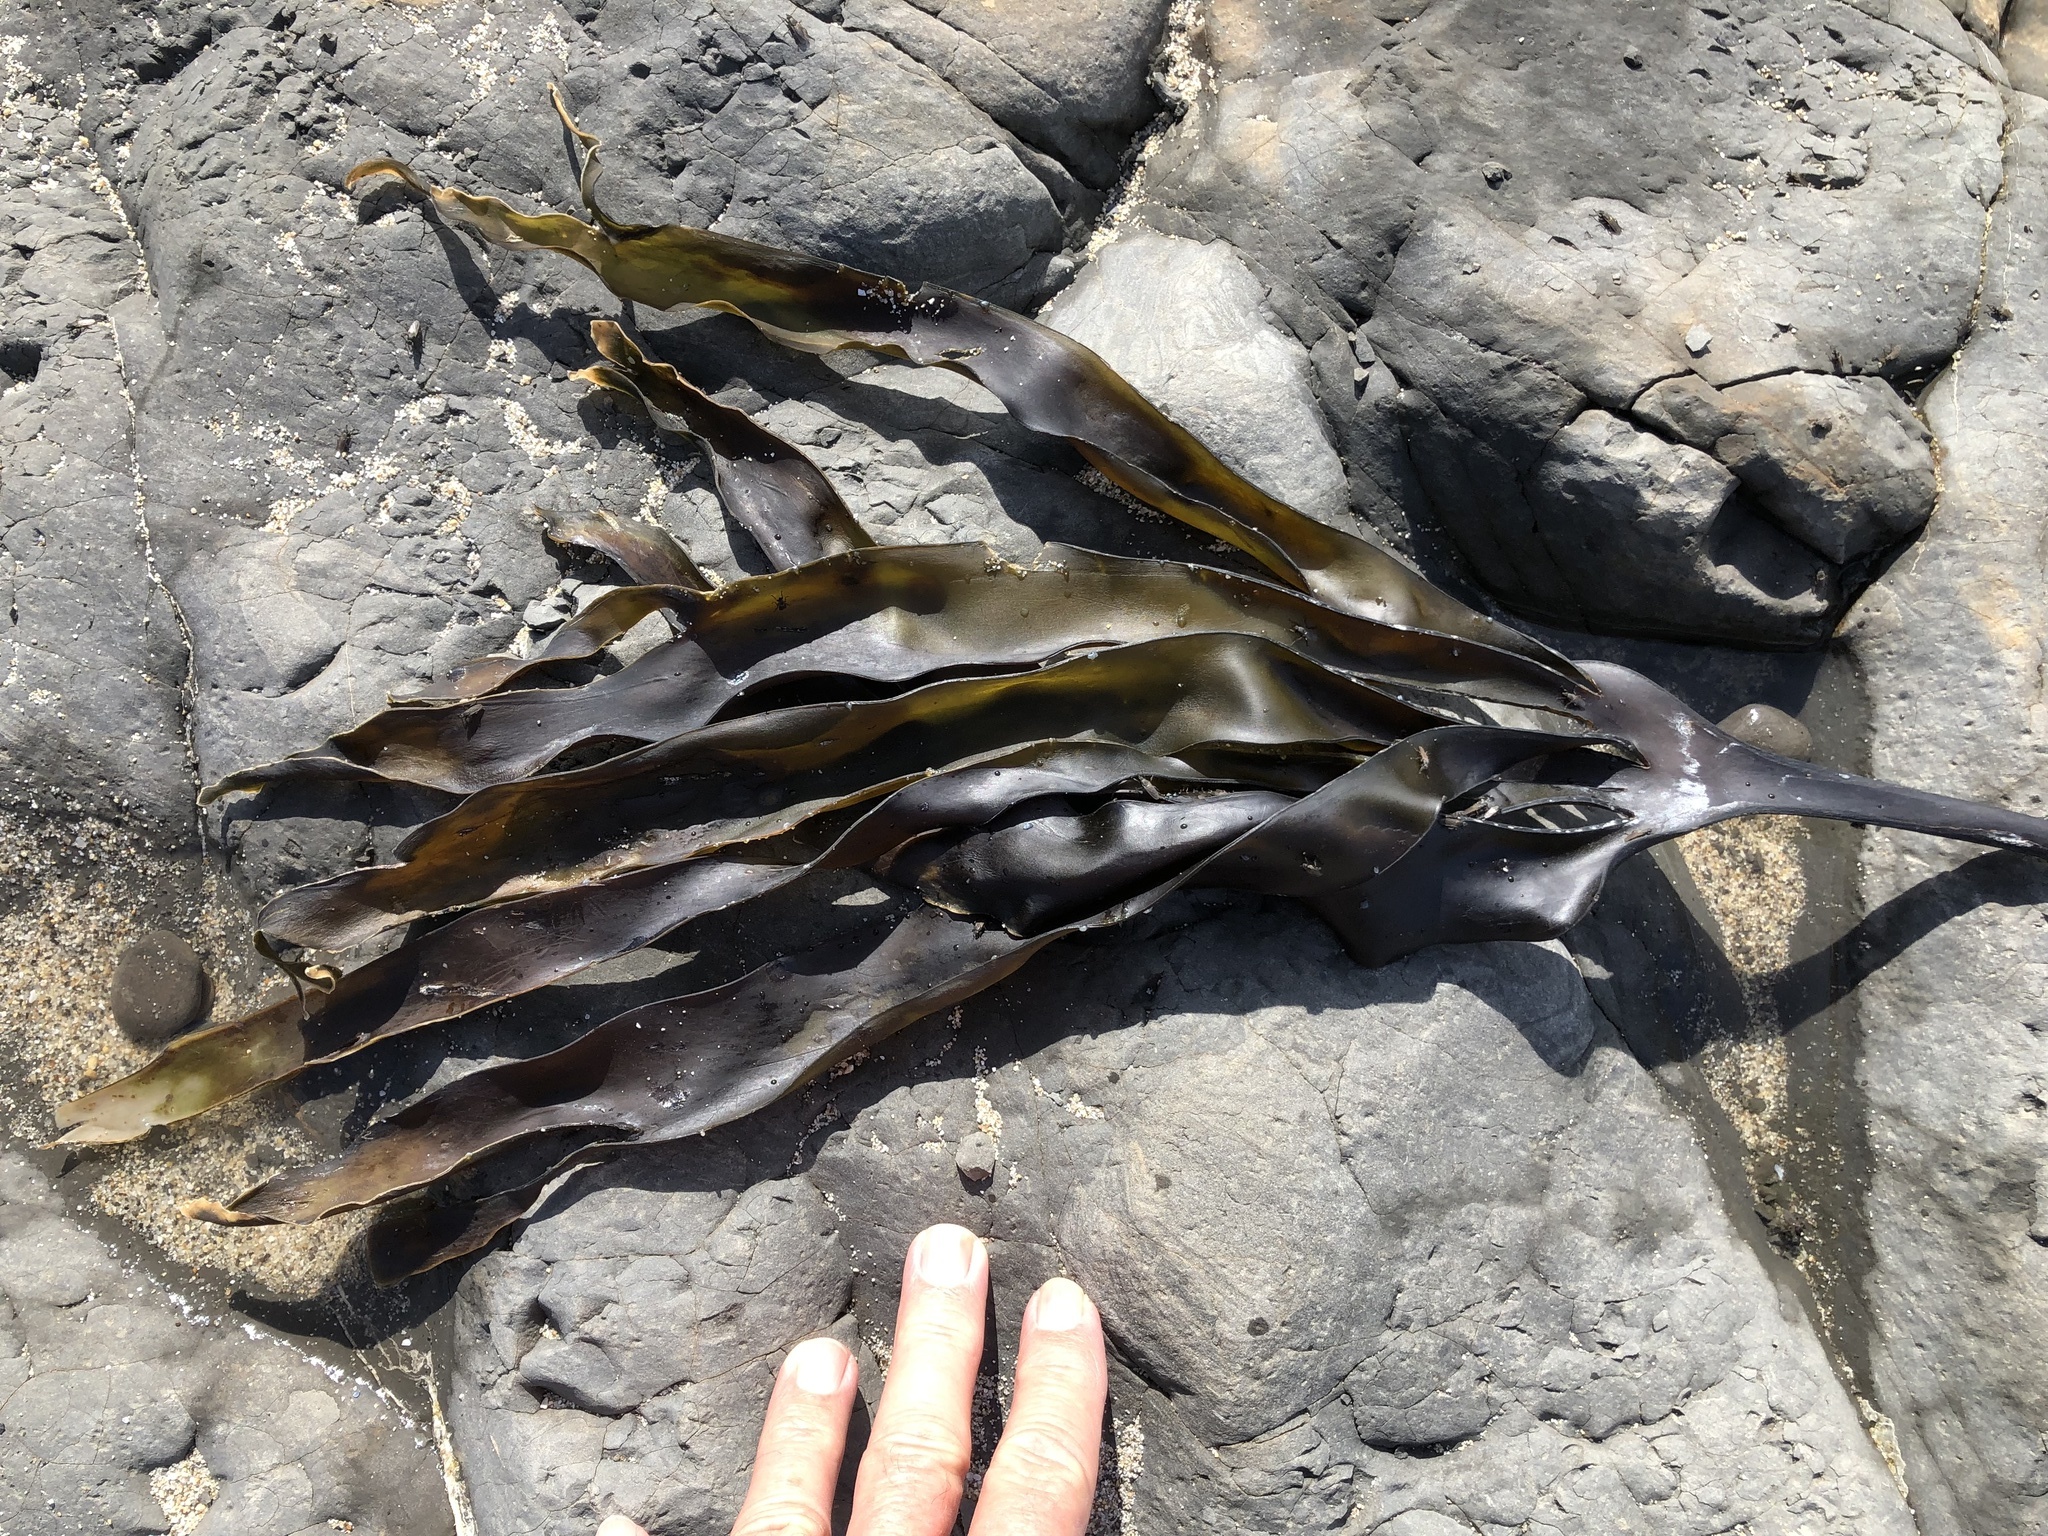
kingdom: Chromista
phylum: Ochrophyta
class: Phaeophyceae
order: Laminariales
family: Laminariaceae
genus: Laminaria
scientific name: Laminaria setchellii
